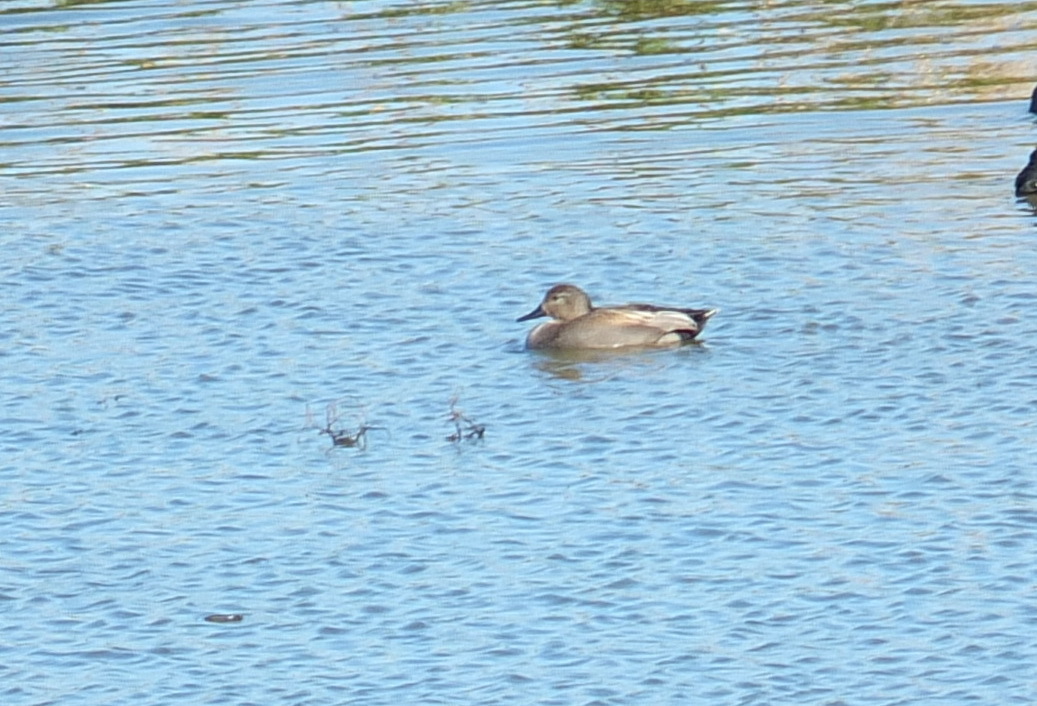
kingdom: Animalia
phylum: Chordata
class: Aves
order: Anseriformes
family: Anatidae
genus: Mareca
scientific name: Mareca strepera
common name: Gadwall
